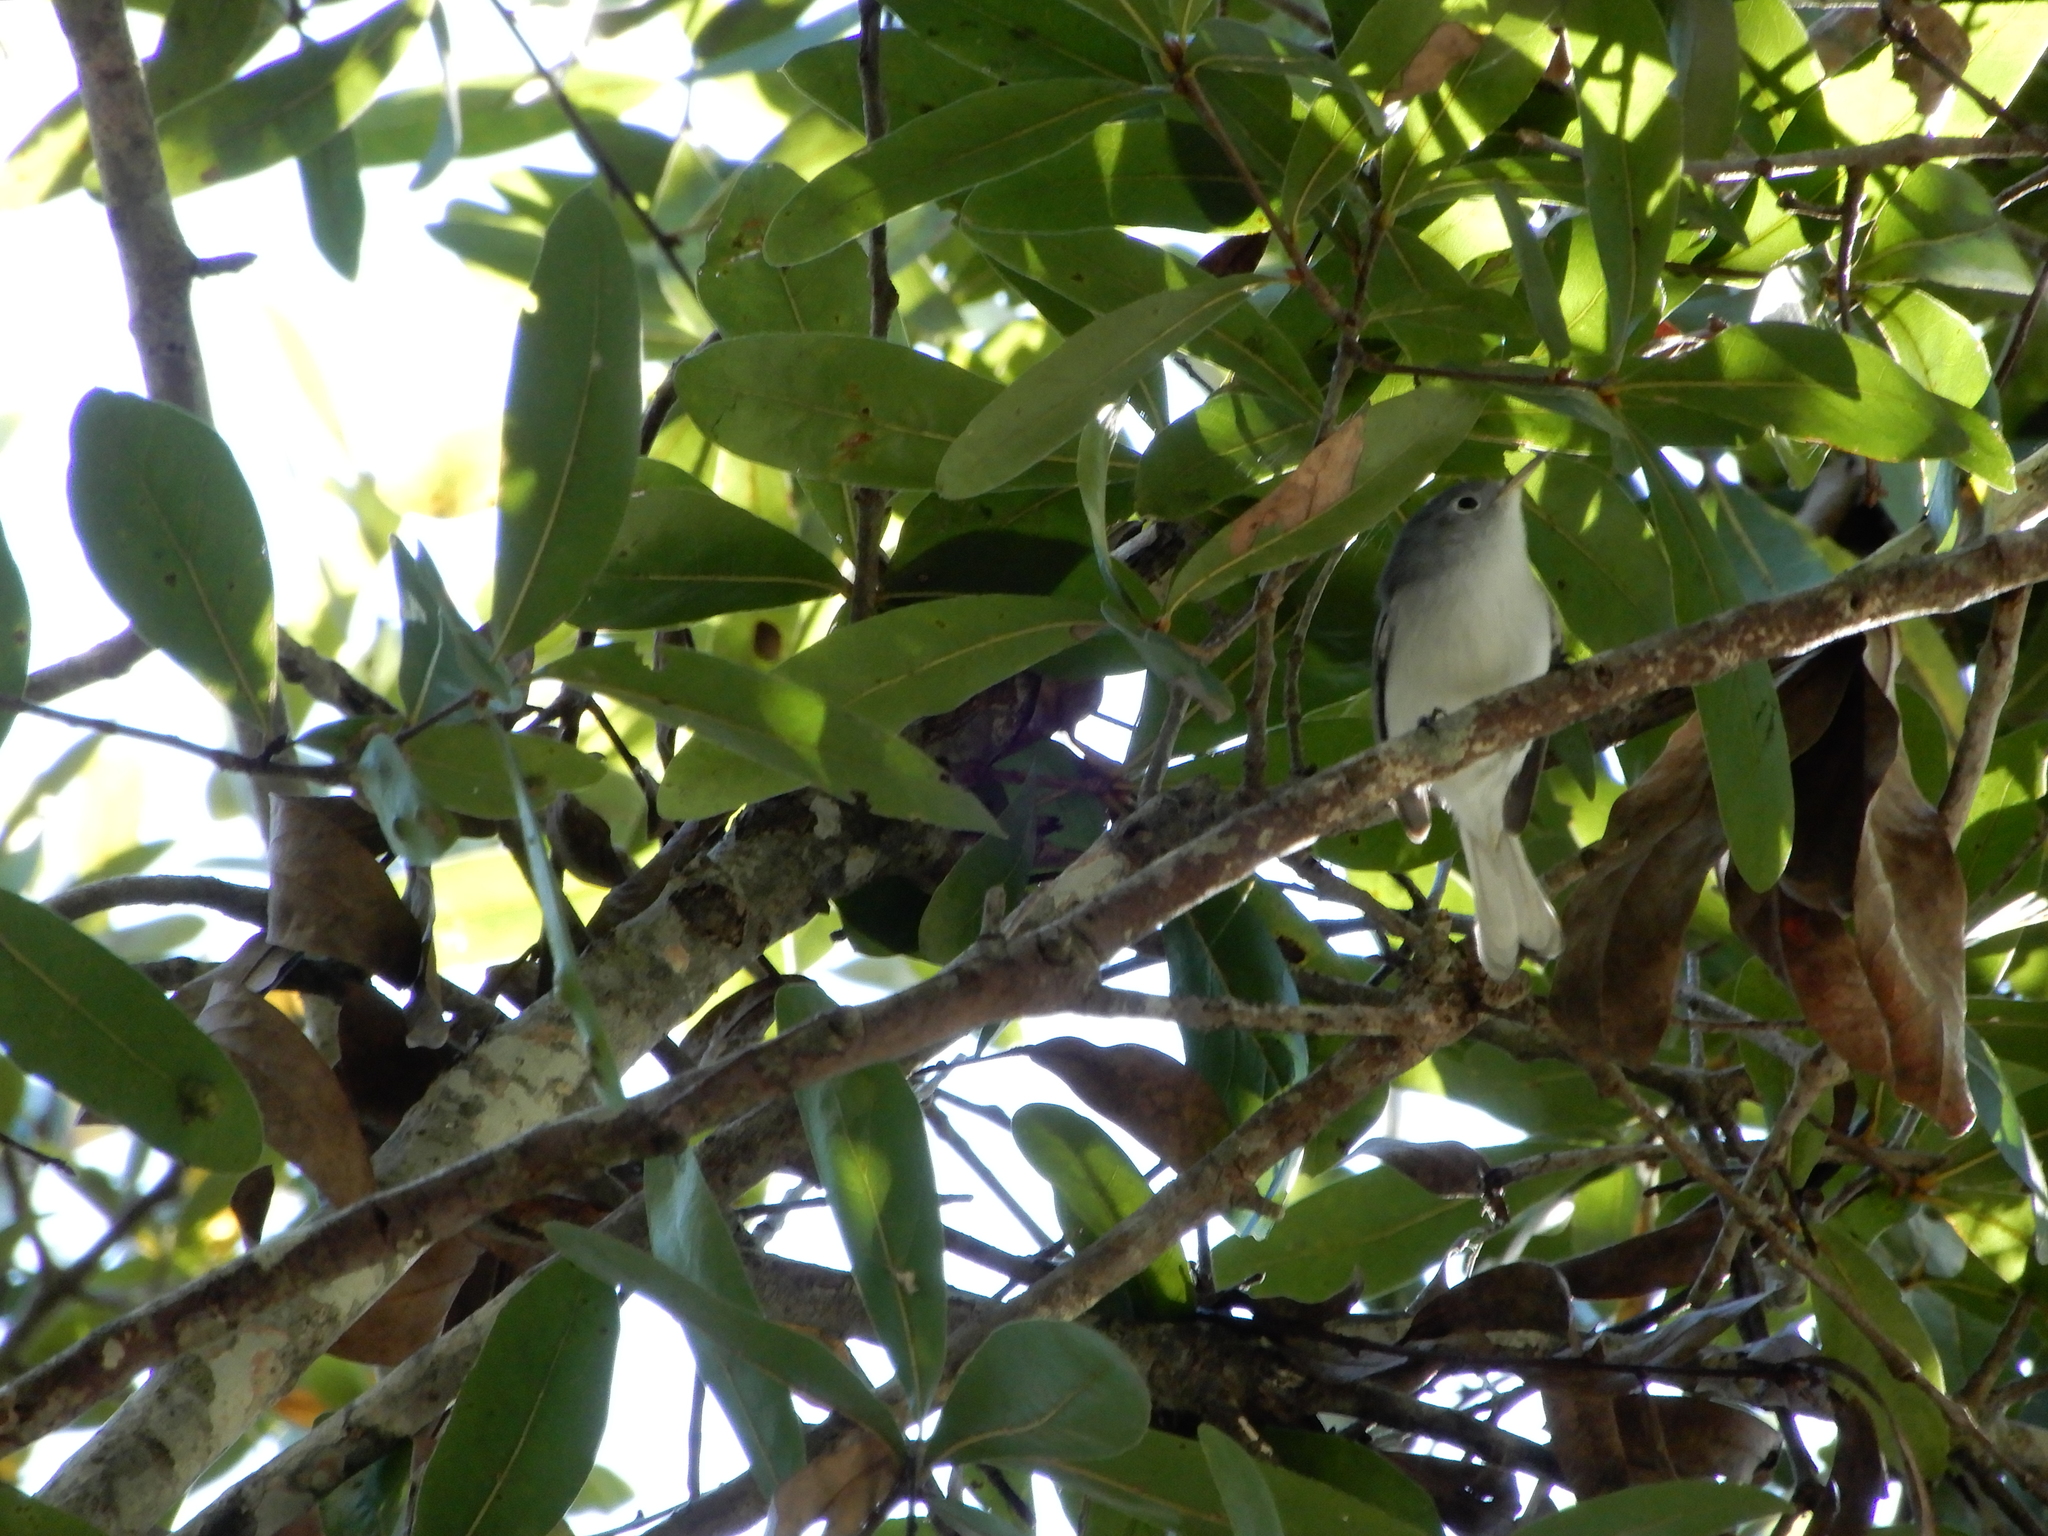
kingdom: Animalia
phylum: Chordata
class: Aves
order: Passeriformes
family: Polioptilidae
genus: Polioptila
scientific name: Polioptila caerulea
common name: Blue-gray gnatcatcher
